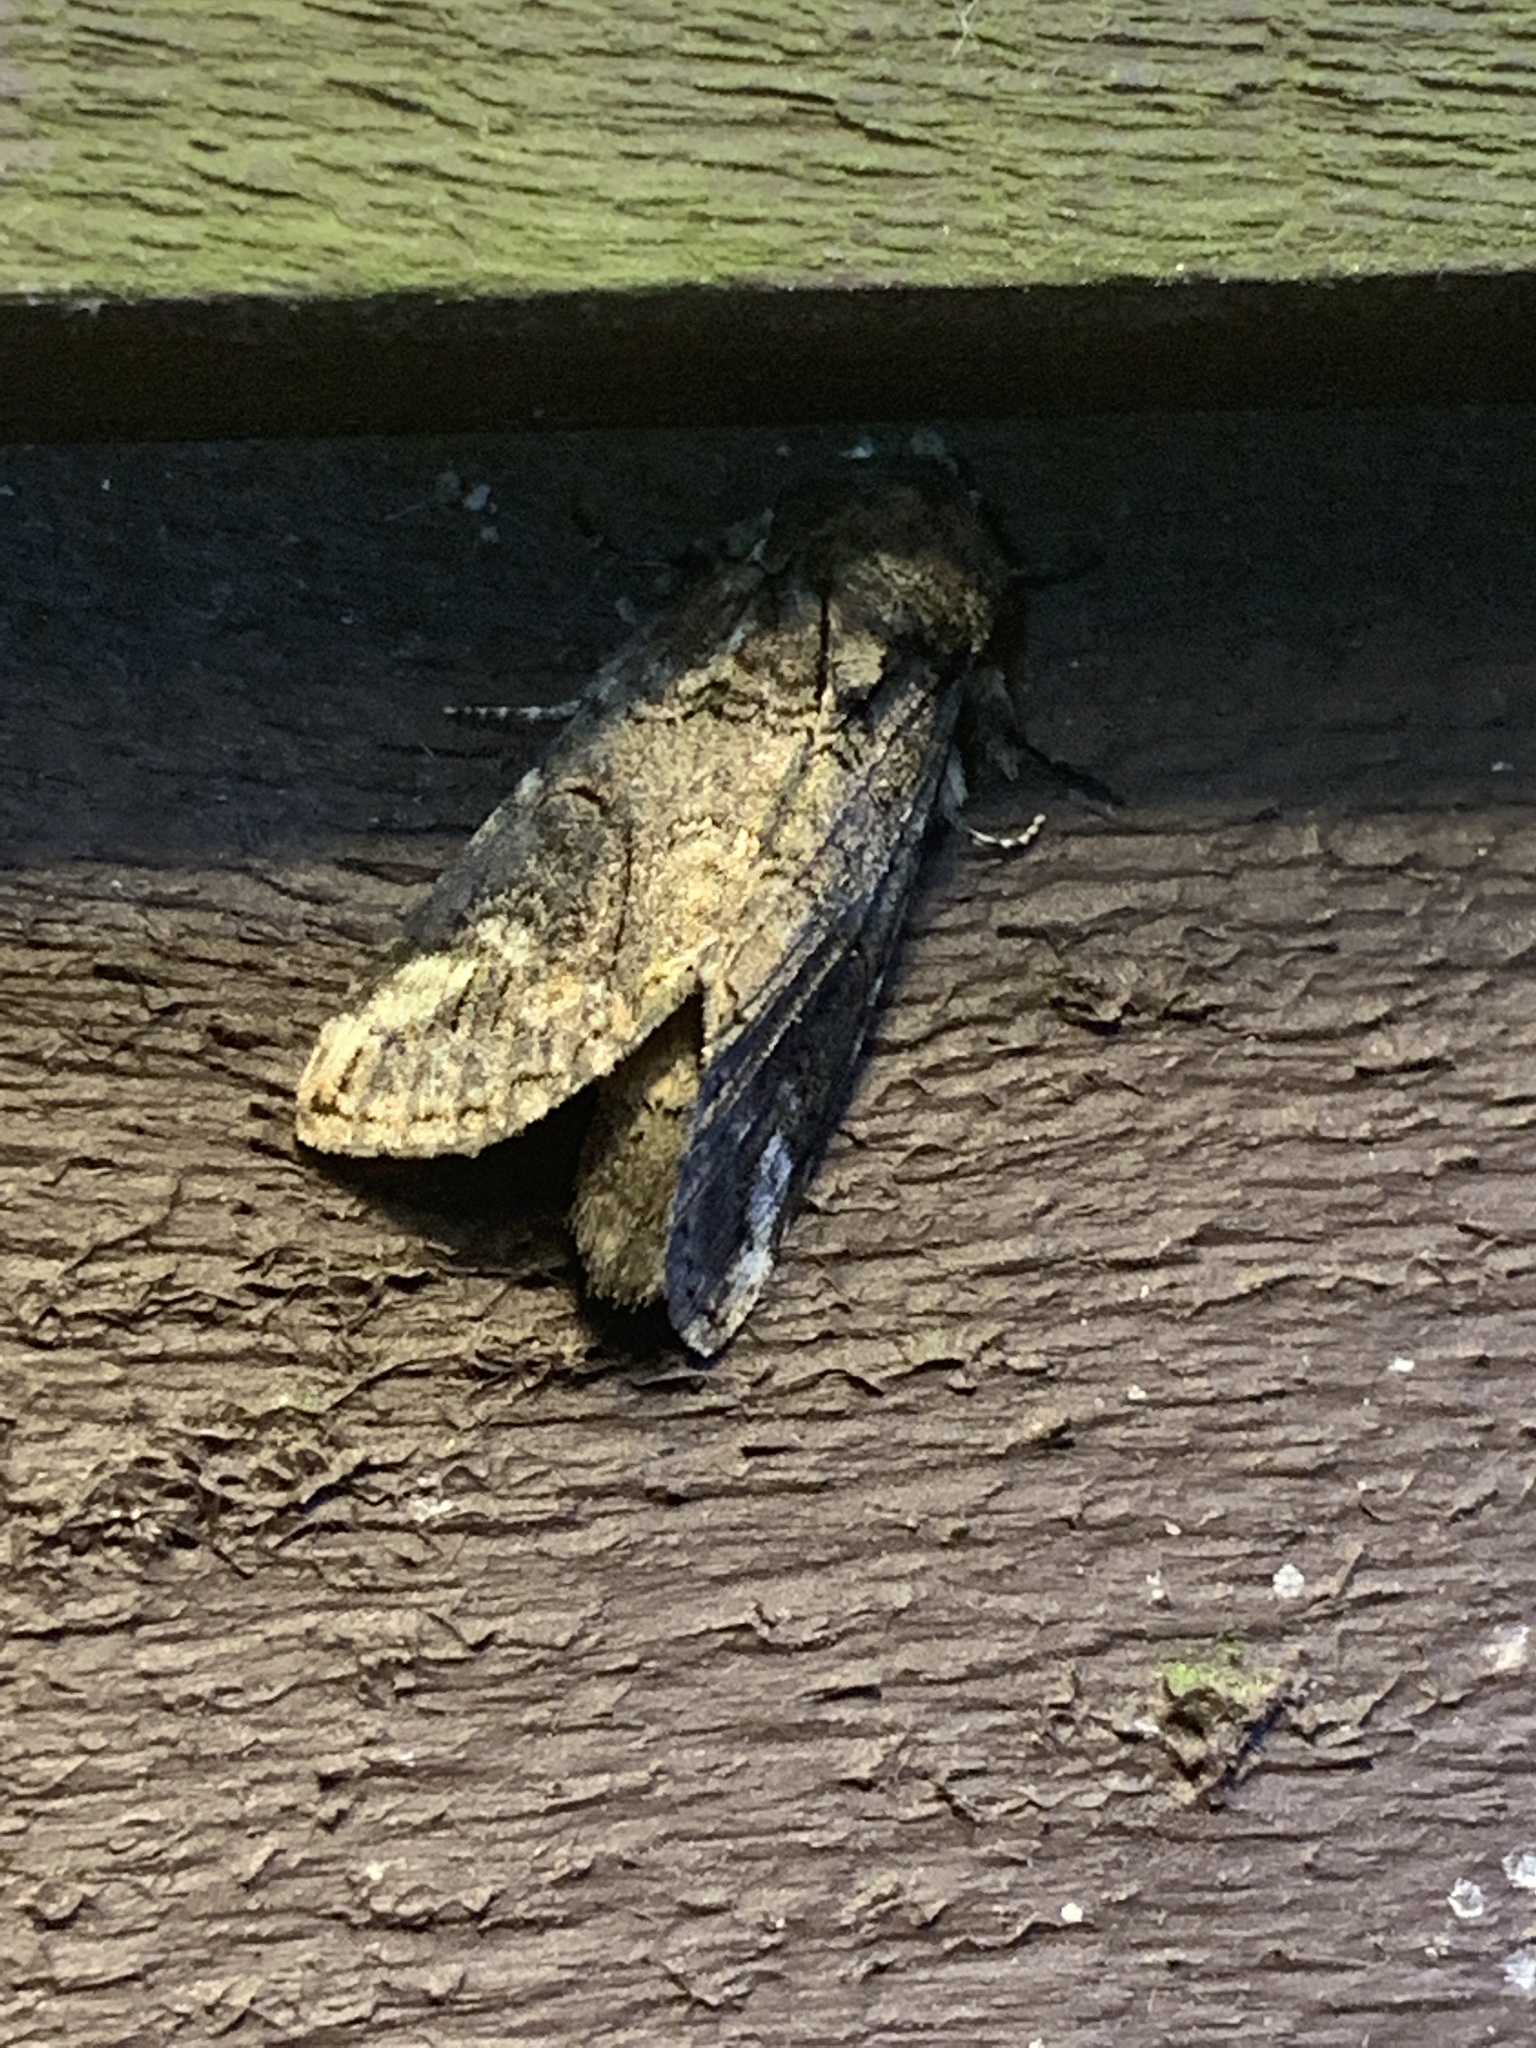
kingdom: Animalia
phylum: Arthropoda
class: Insecta
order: Lepidoptera
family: Notodontidae
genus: Heterocampa
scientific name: Heterocampa obliqua
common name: Oblique heterocampa
